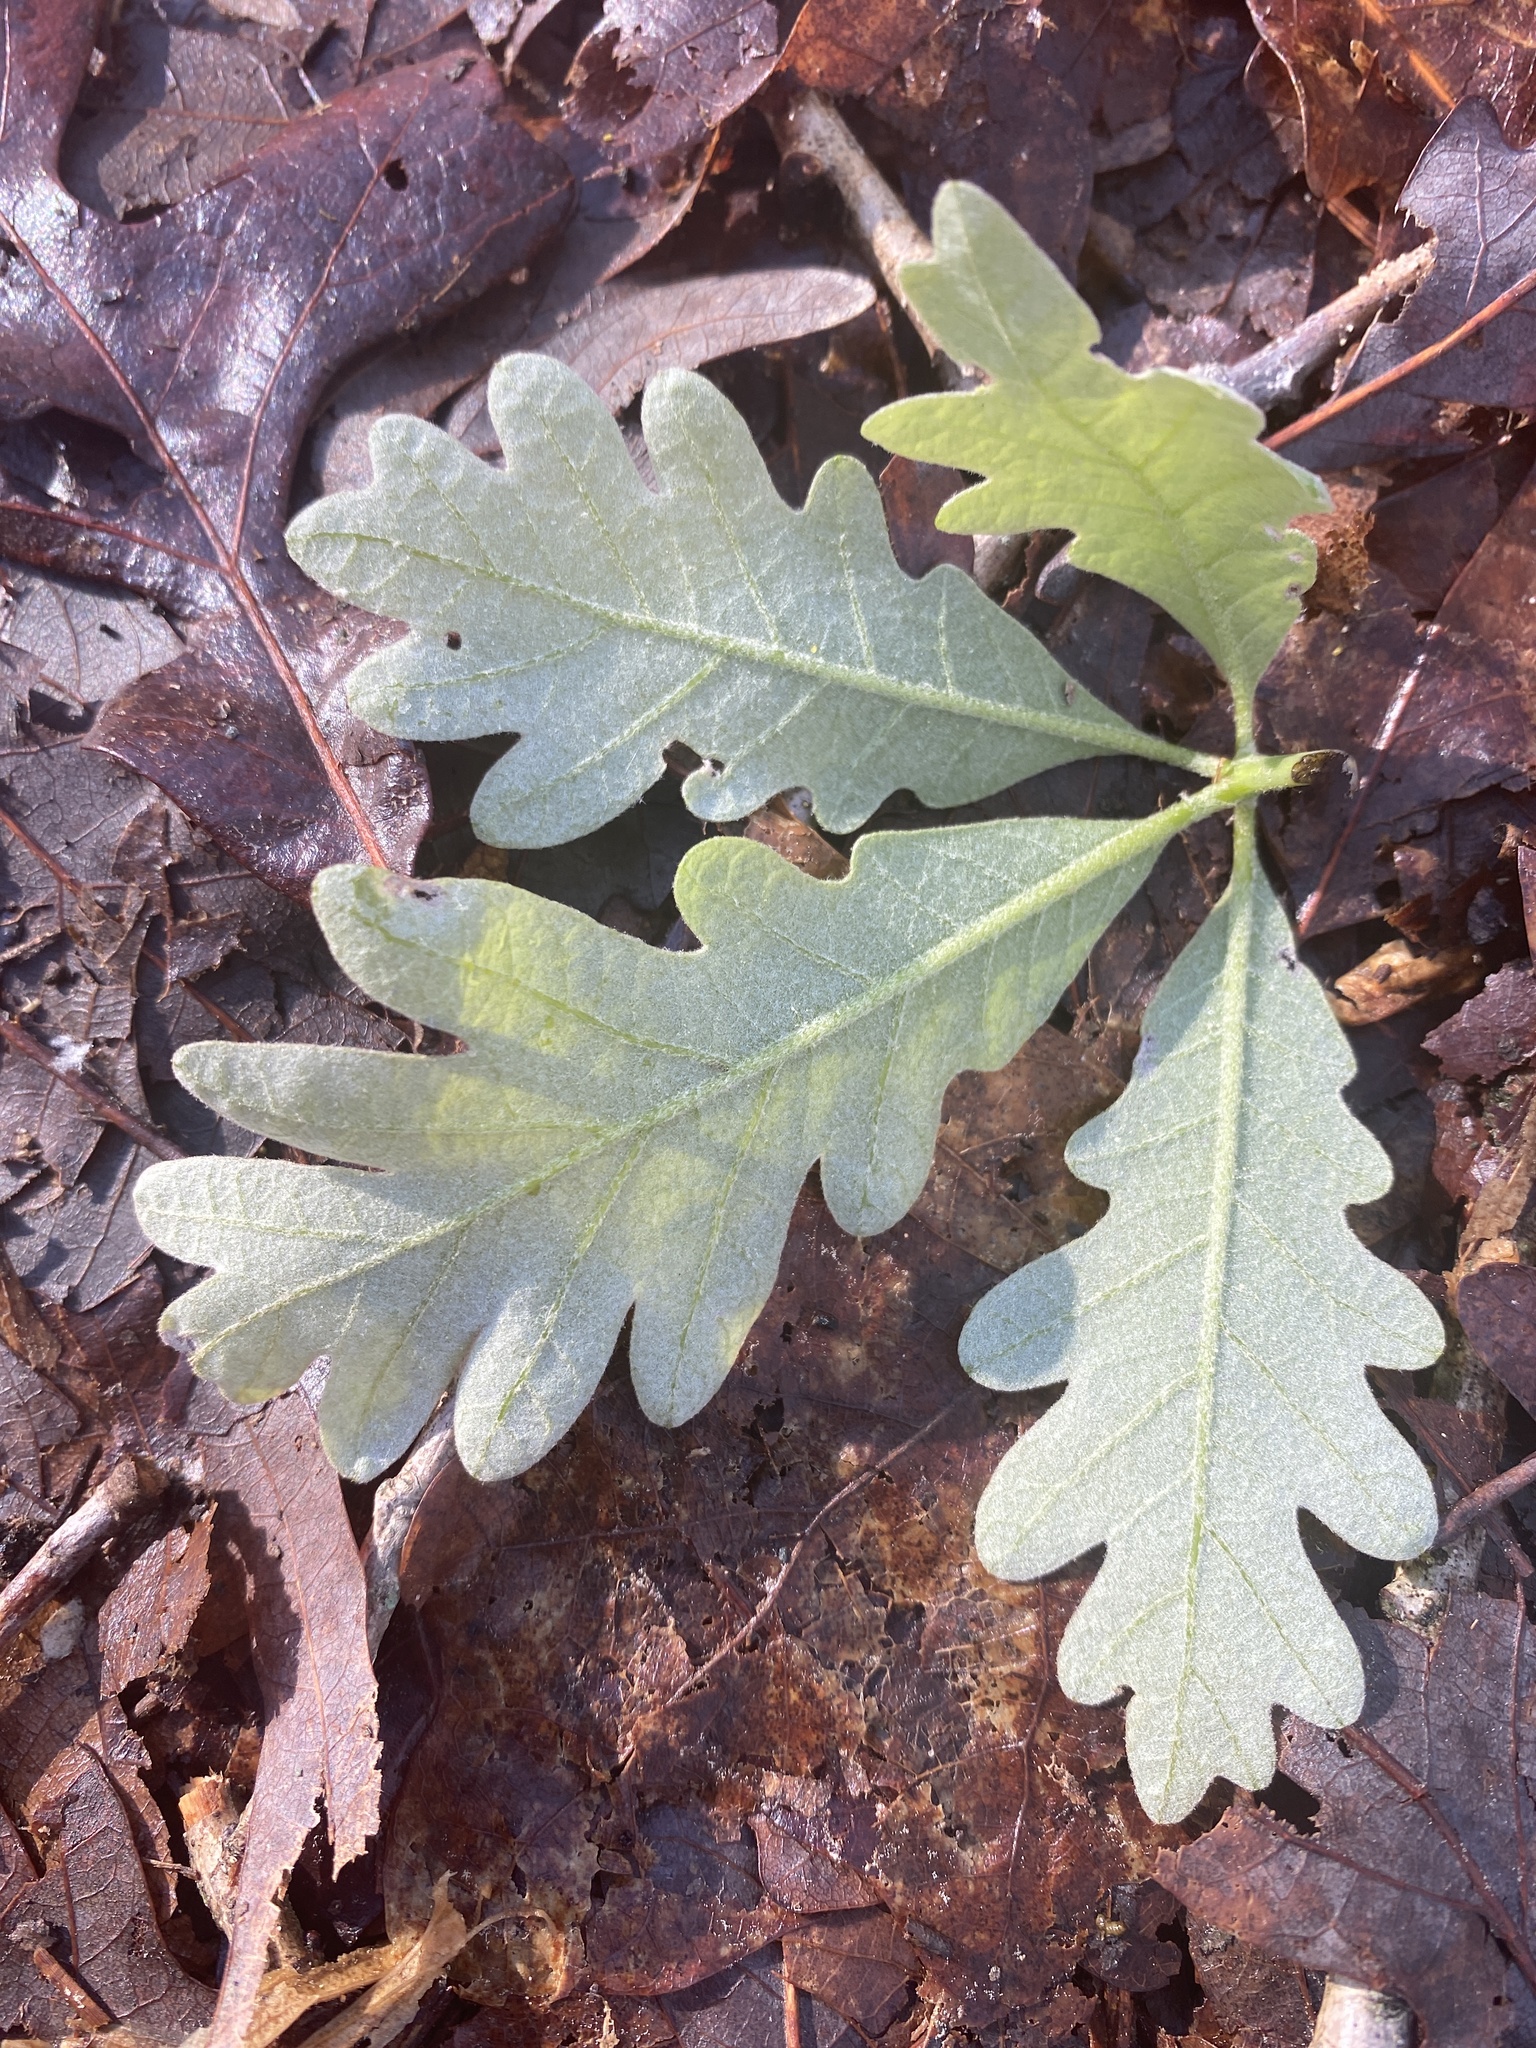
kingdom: Plantae
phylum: Tracheophyta
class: Magnoliopsida
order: Fagales
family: Fagaceae
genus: Quercus
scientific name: Quercus alba
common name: White oak
